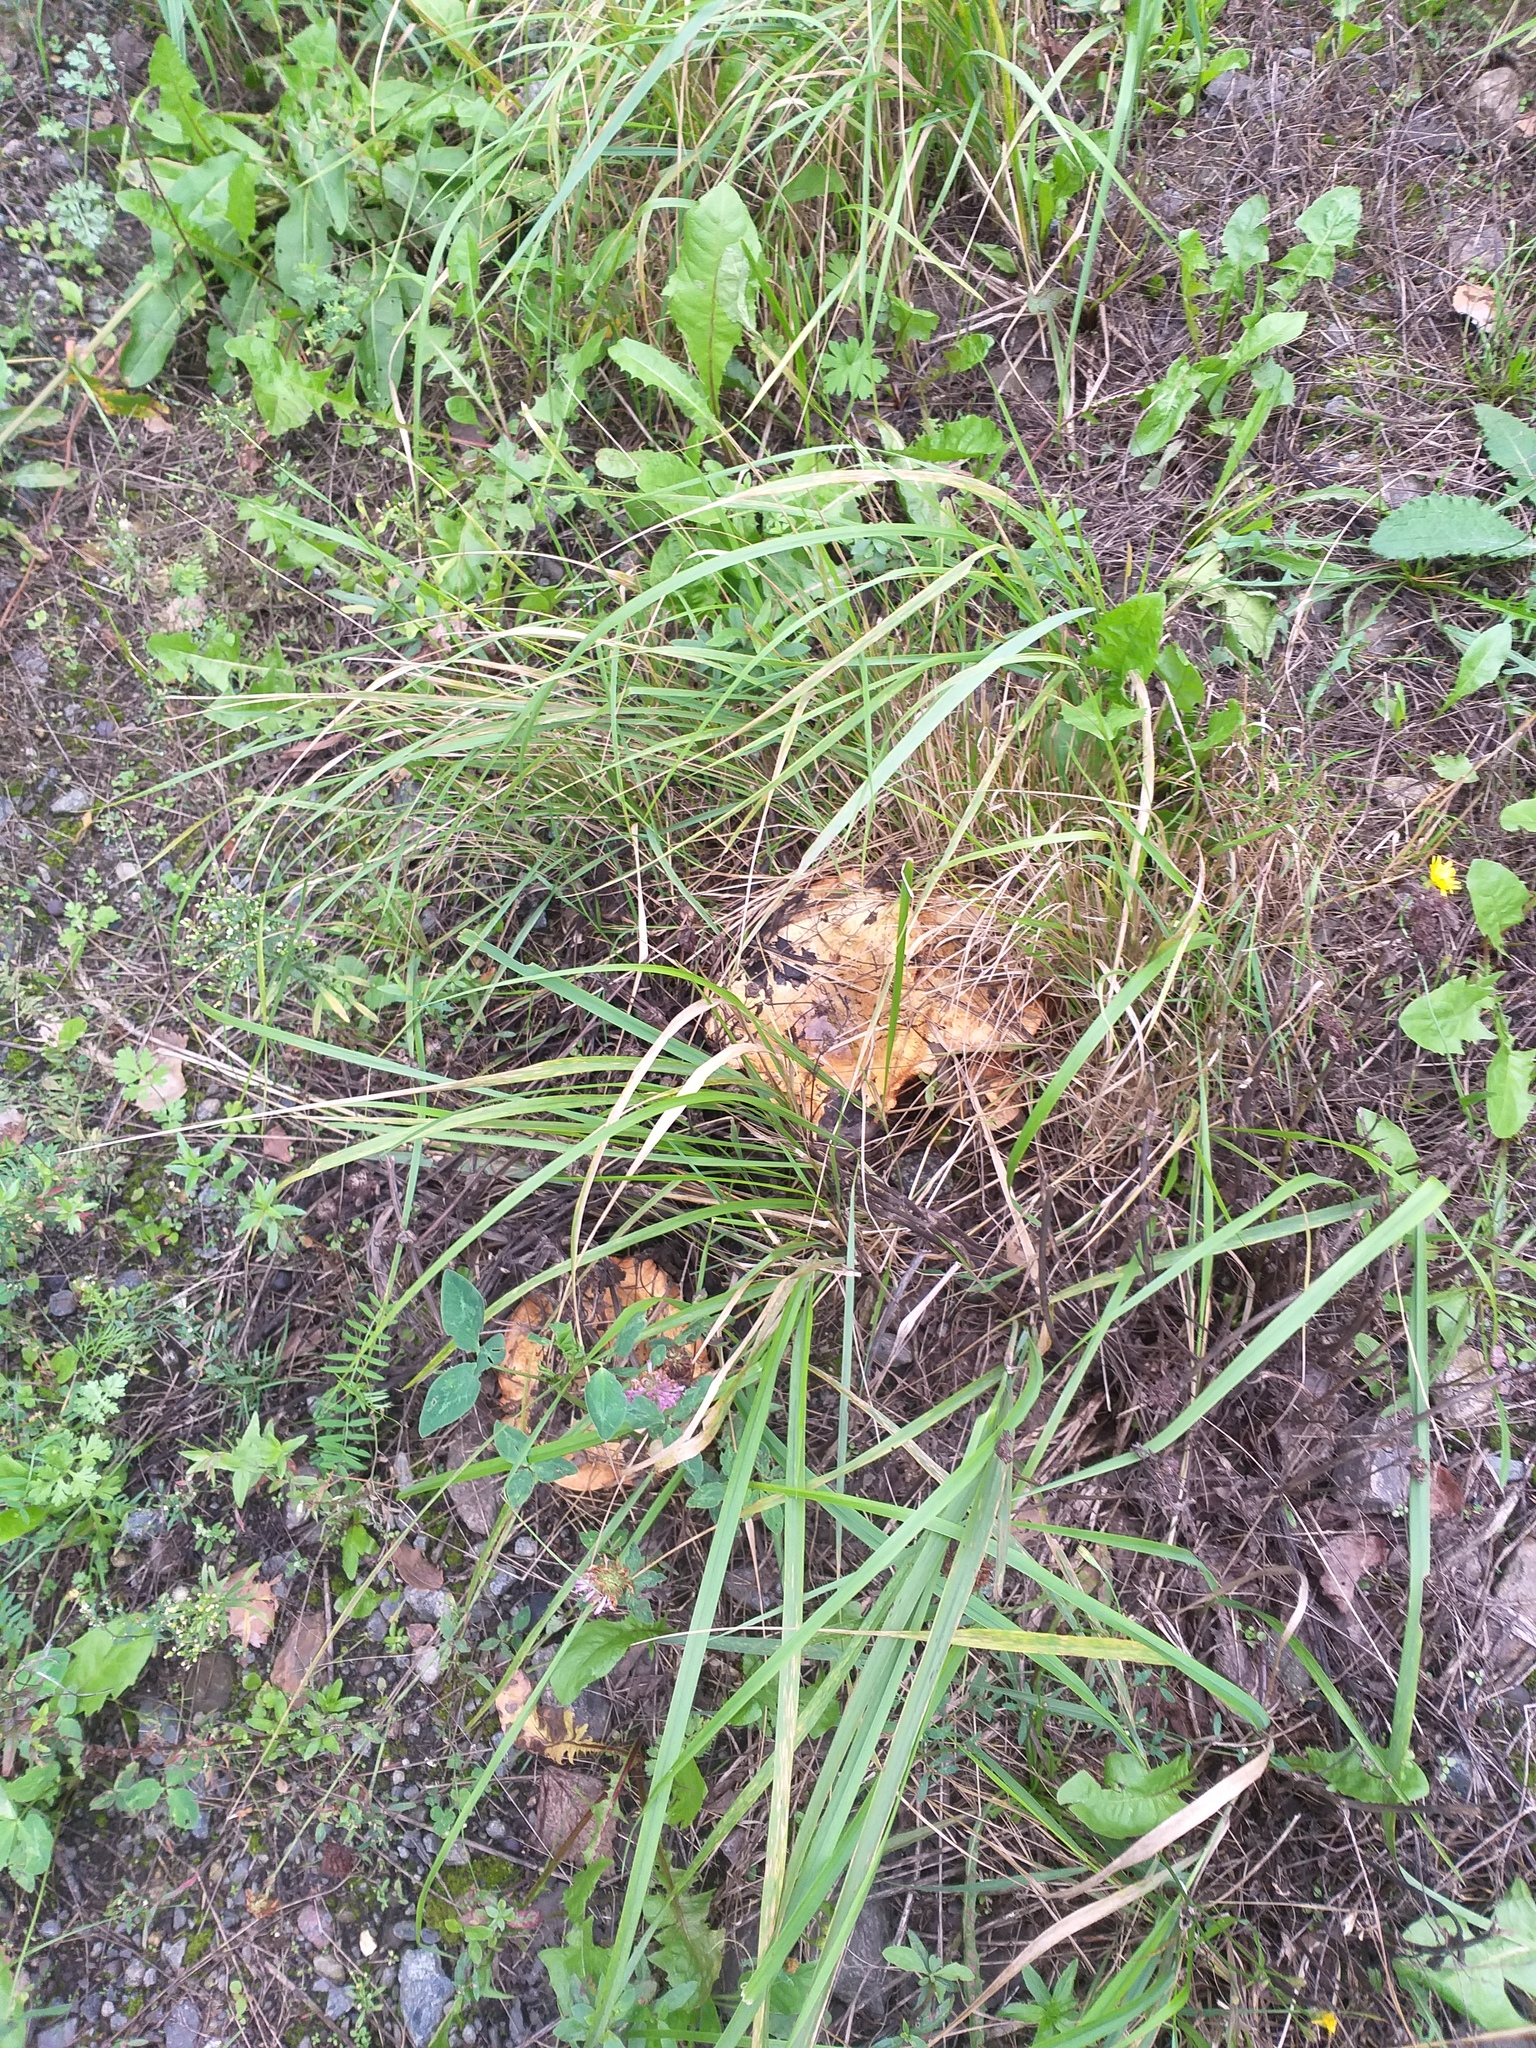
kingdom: Fungi
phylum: Basidiomycota
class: Agaricomycetes
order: Boletales
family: Paxillaceae
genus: Paxillus
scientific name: Paxillus involutus
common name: Brown roll rim
